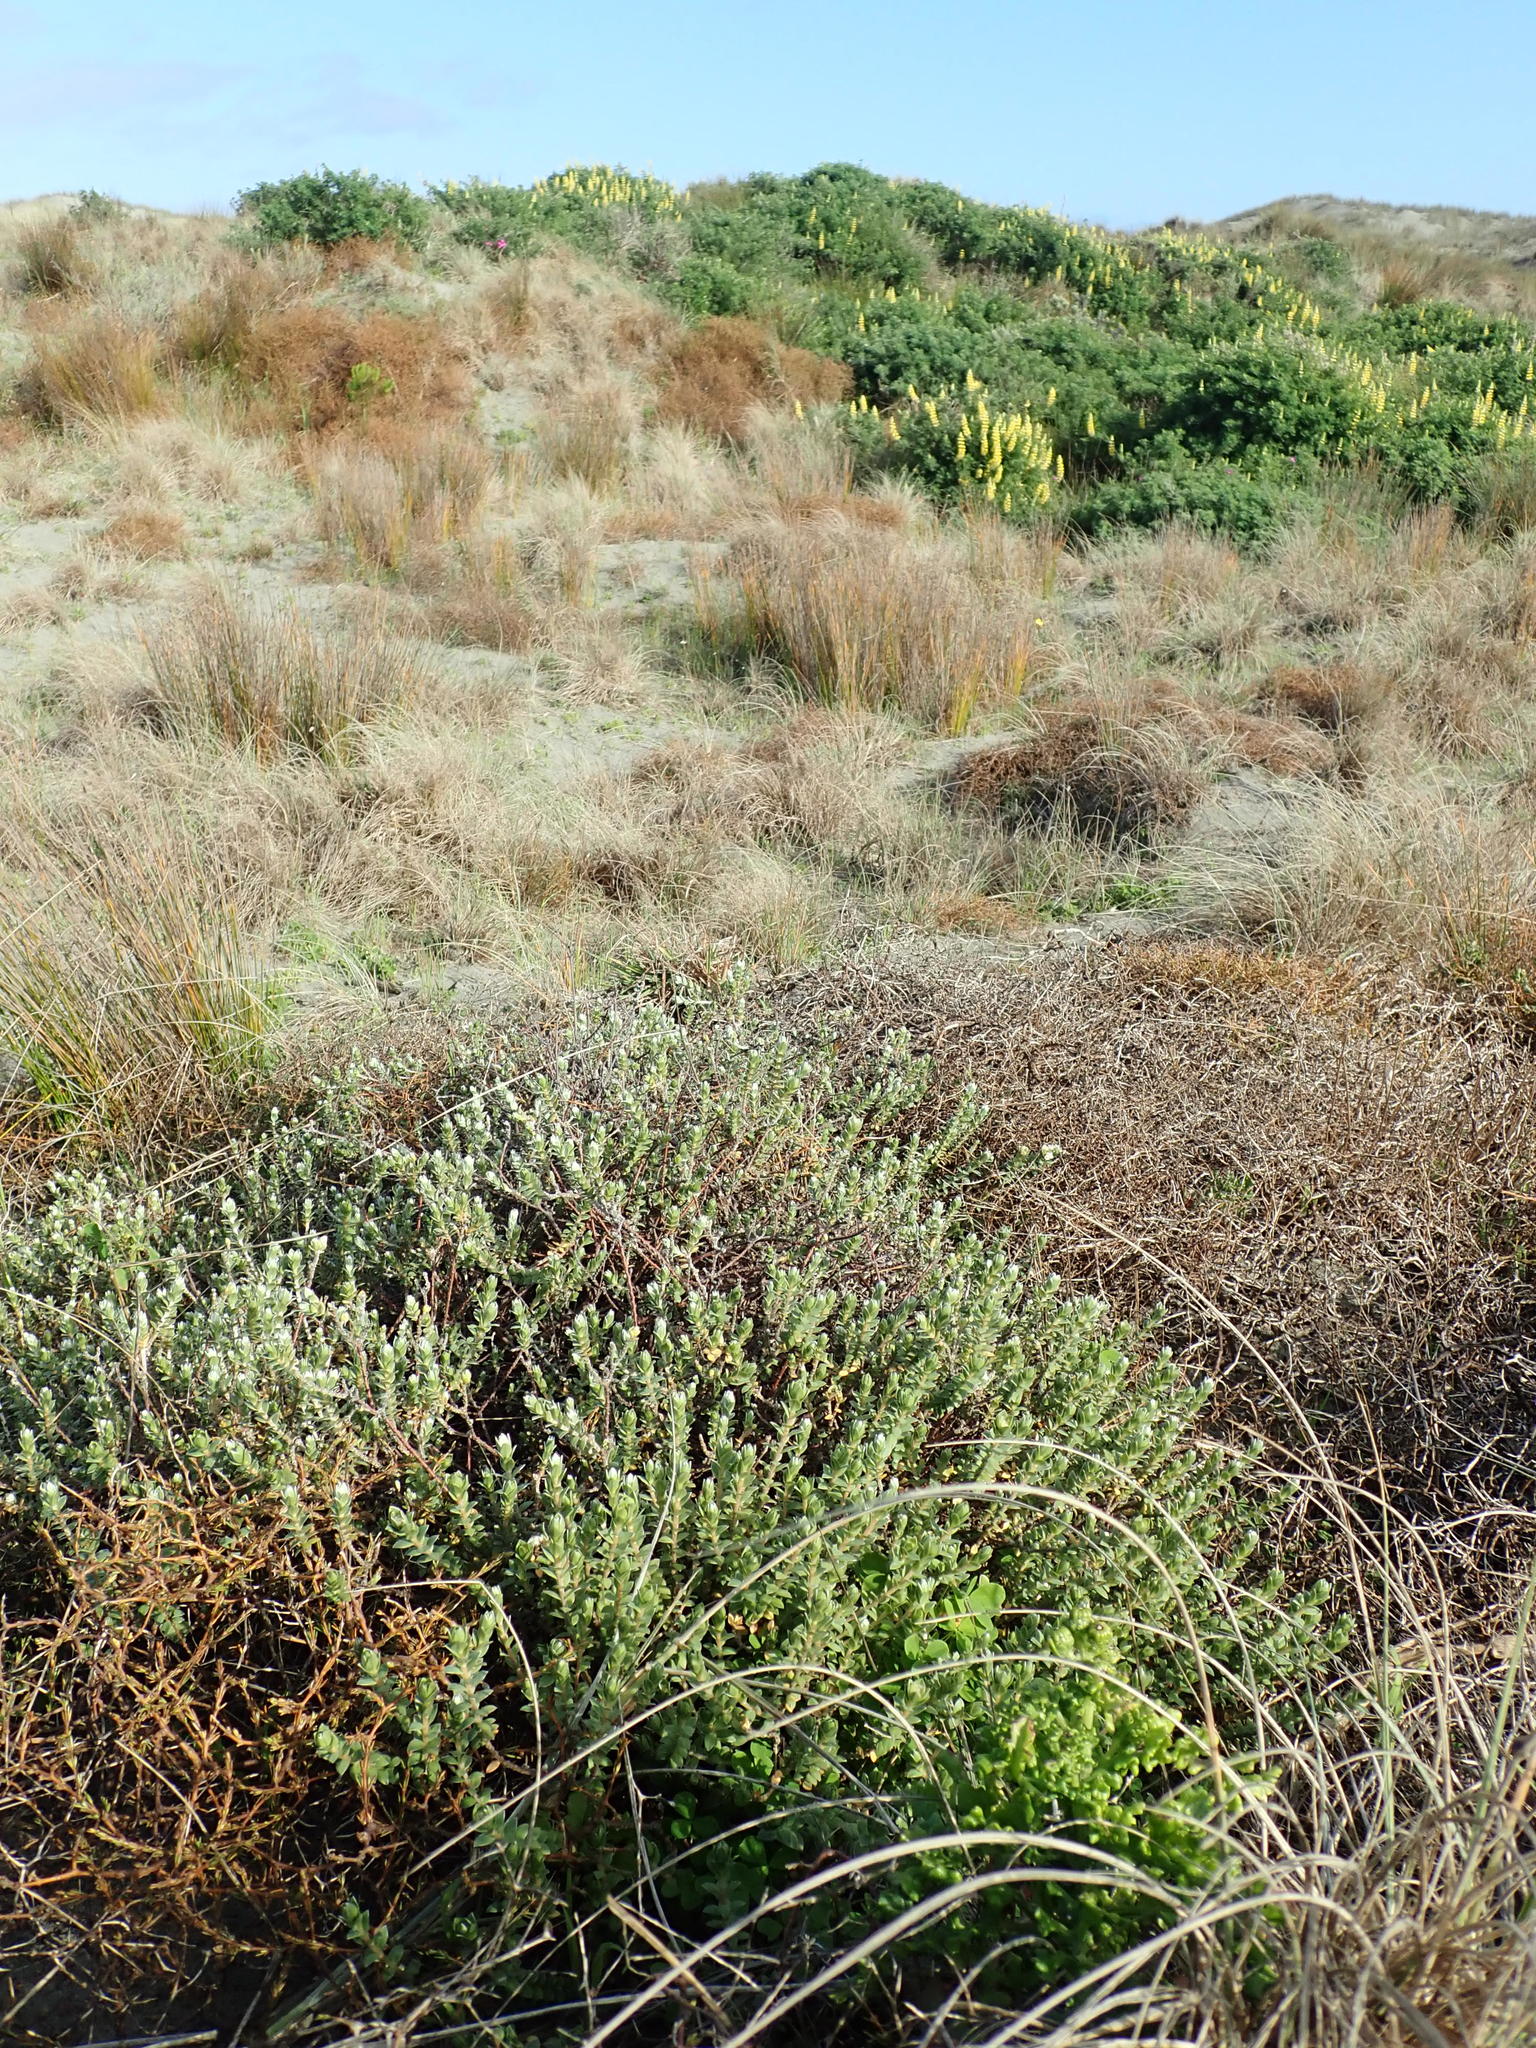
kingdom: Plantae
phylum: Tracheophyta
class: Magnoliopsida
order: Malvales
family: Thymelaeaceae
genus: Pimelea
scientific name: Pimelea villosa
